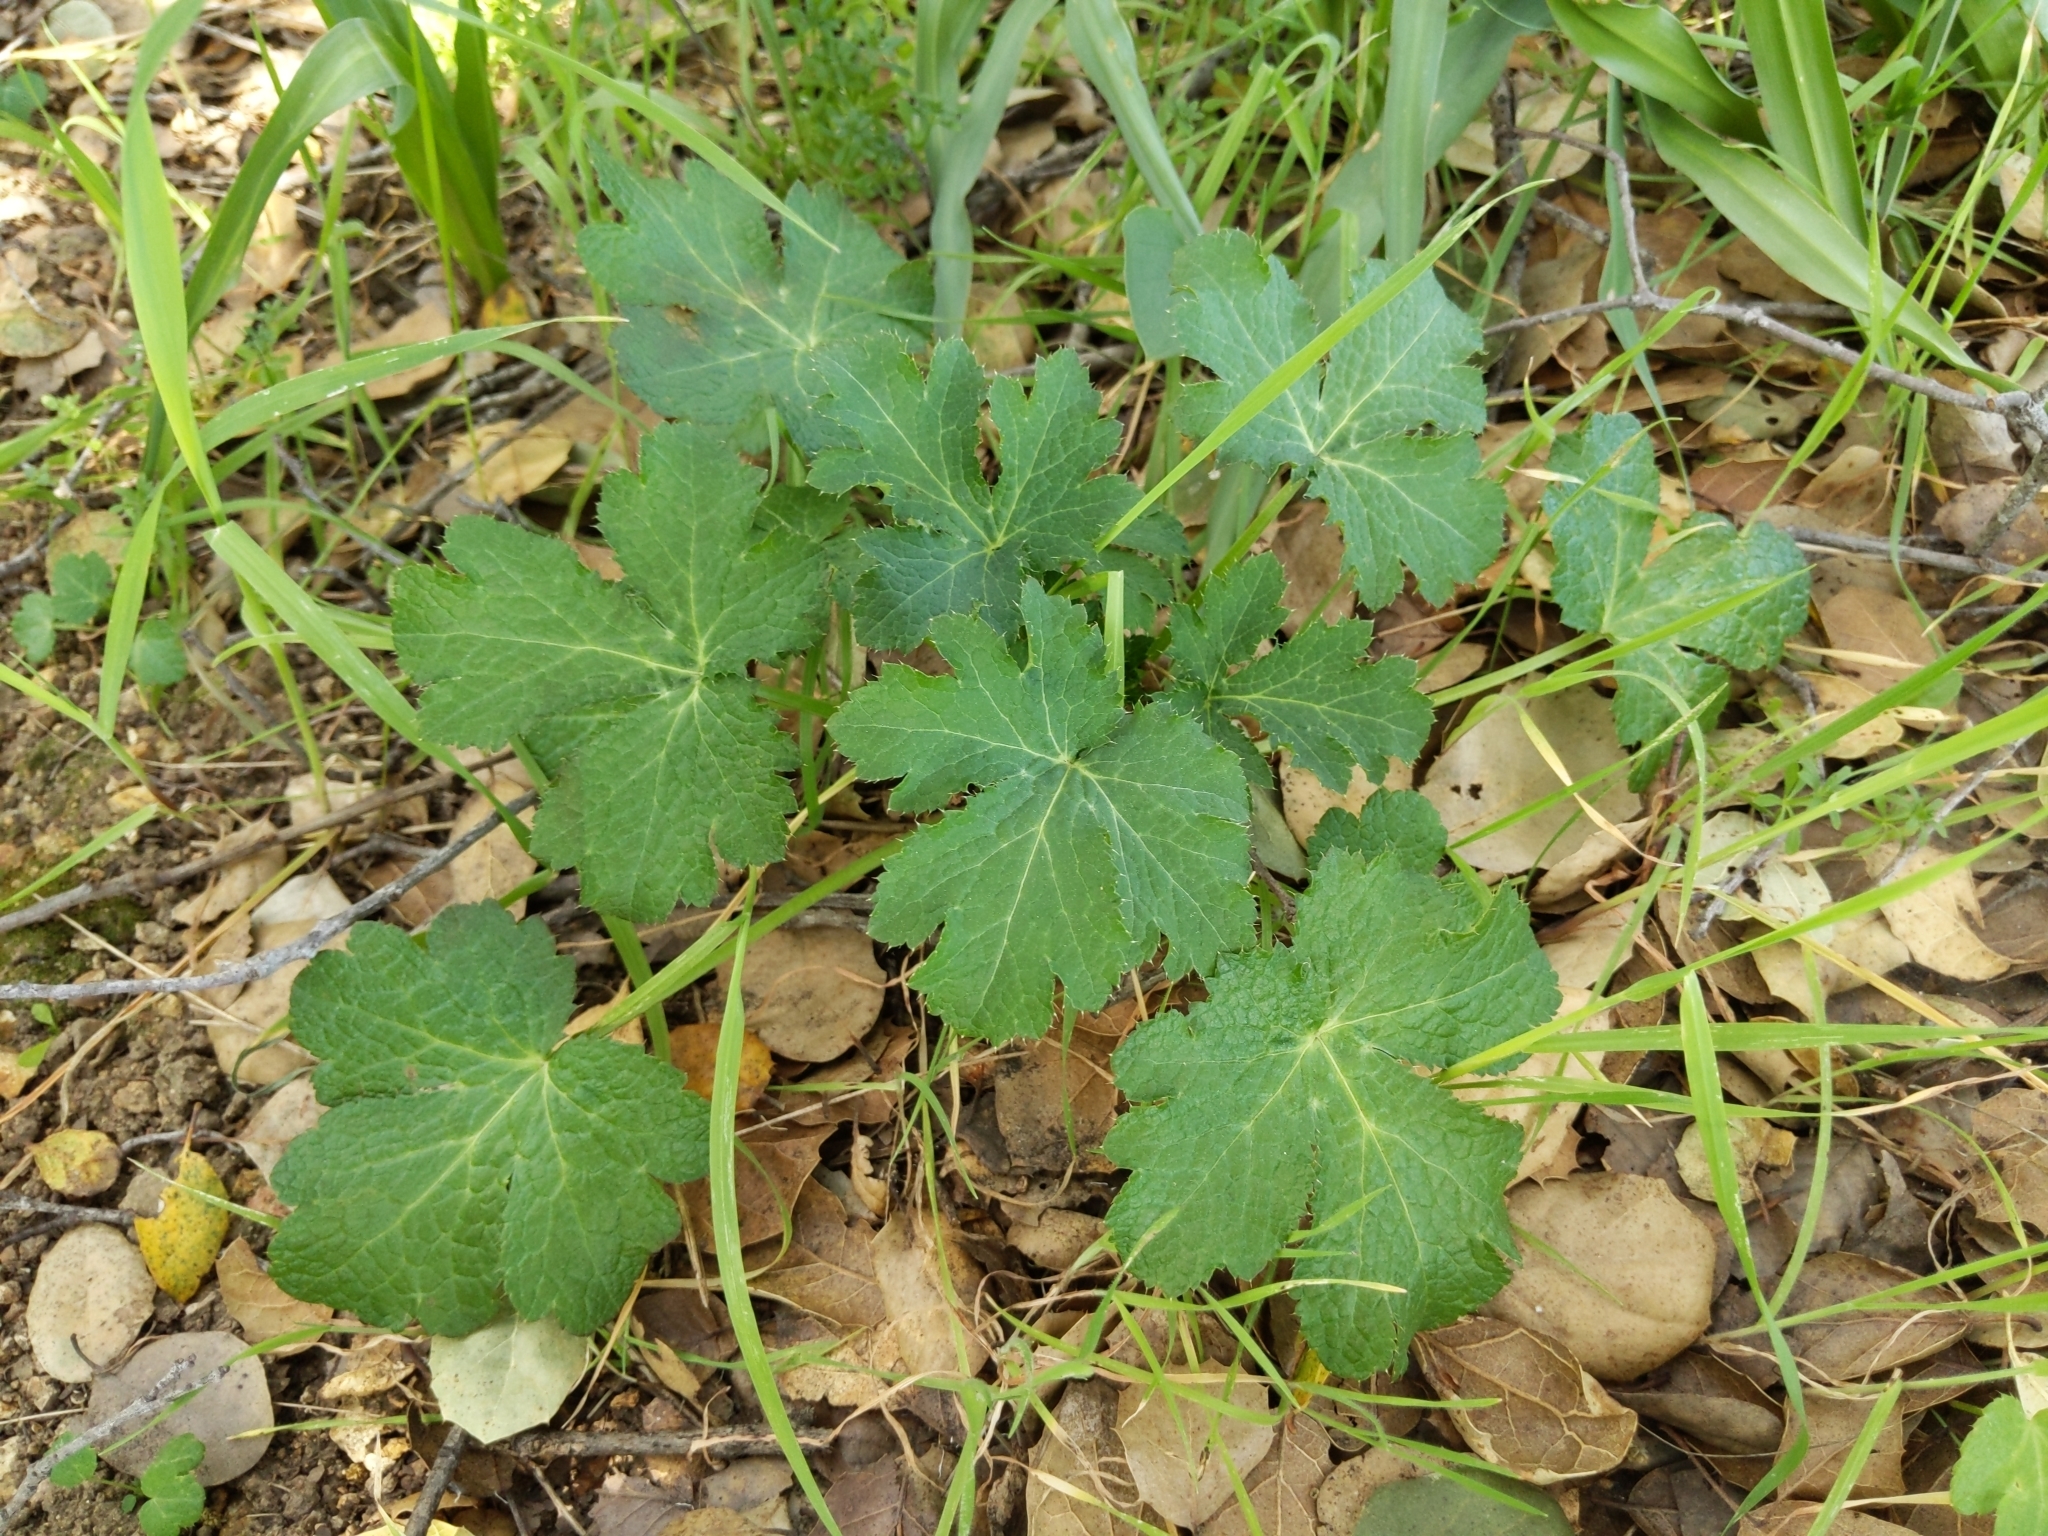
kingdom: Plantae
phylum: Tracheophyta
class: Magnoliopsida
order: Apiales
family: Apiaceae
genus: Sanicula
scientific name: Sanicula crassicaulis
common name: Western snakeroot
